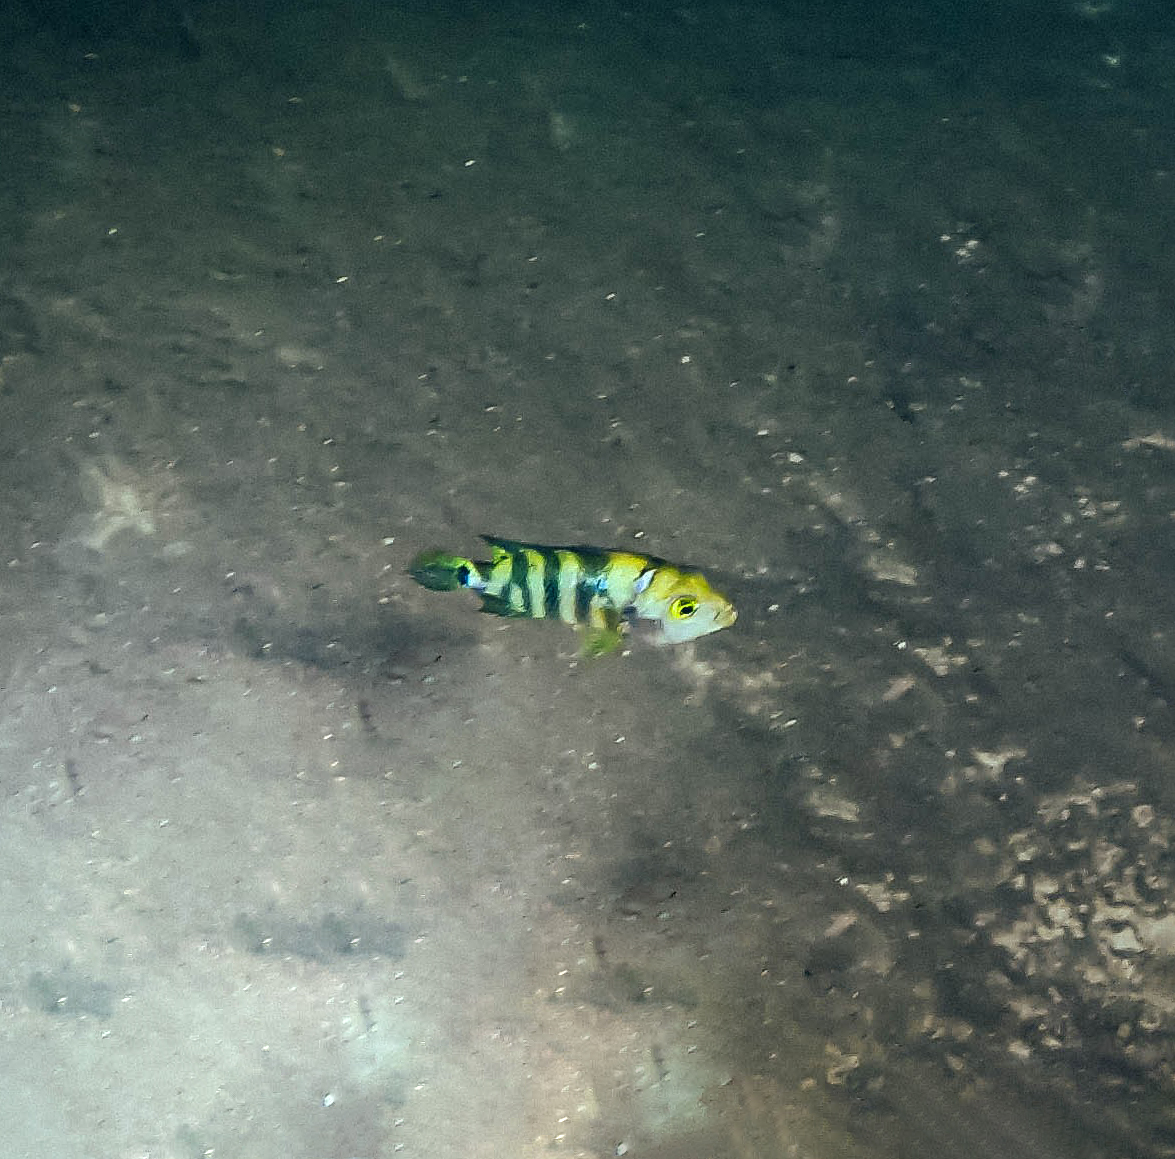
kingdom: Animalia
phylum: Chordata
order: Perciformes
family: Cichlidae
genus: Mayaheros
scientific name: Mayaheros urophthalmus
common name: Mayan cichlid
